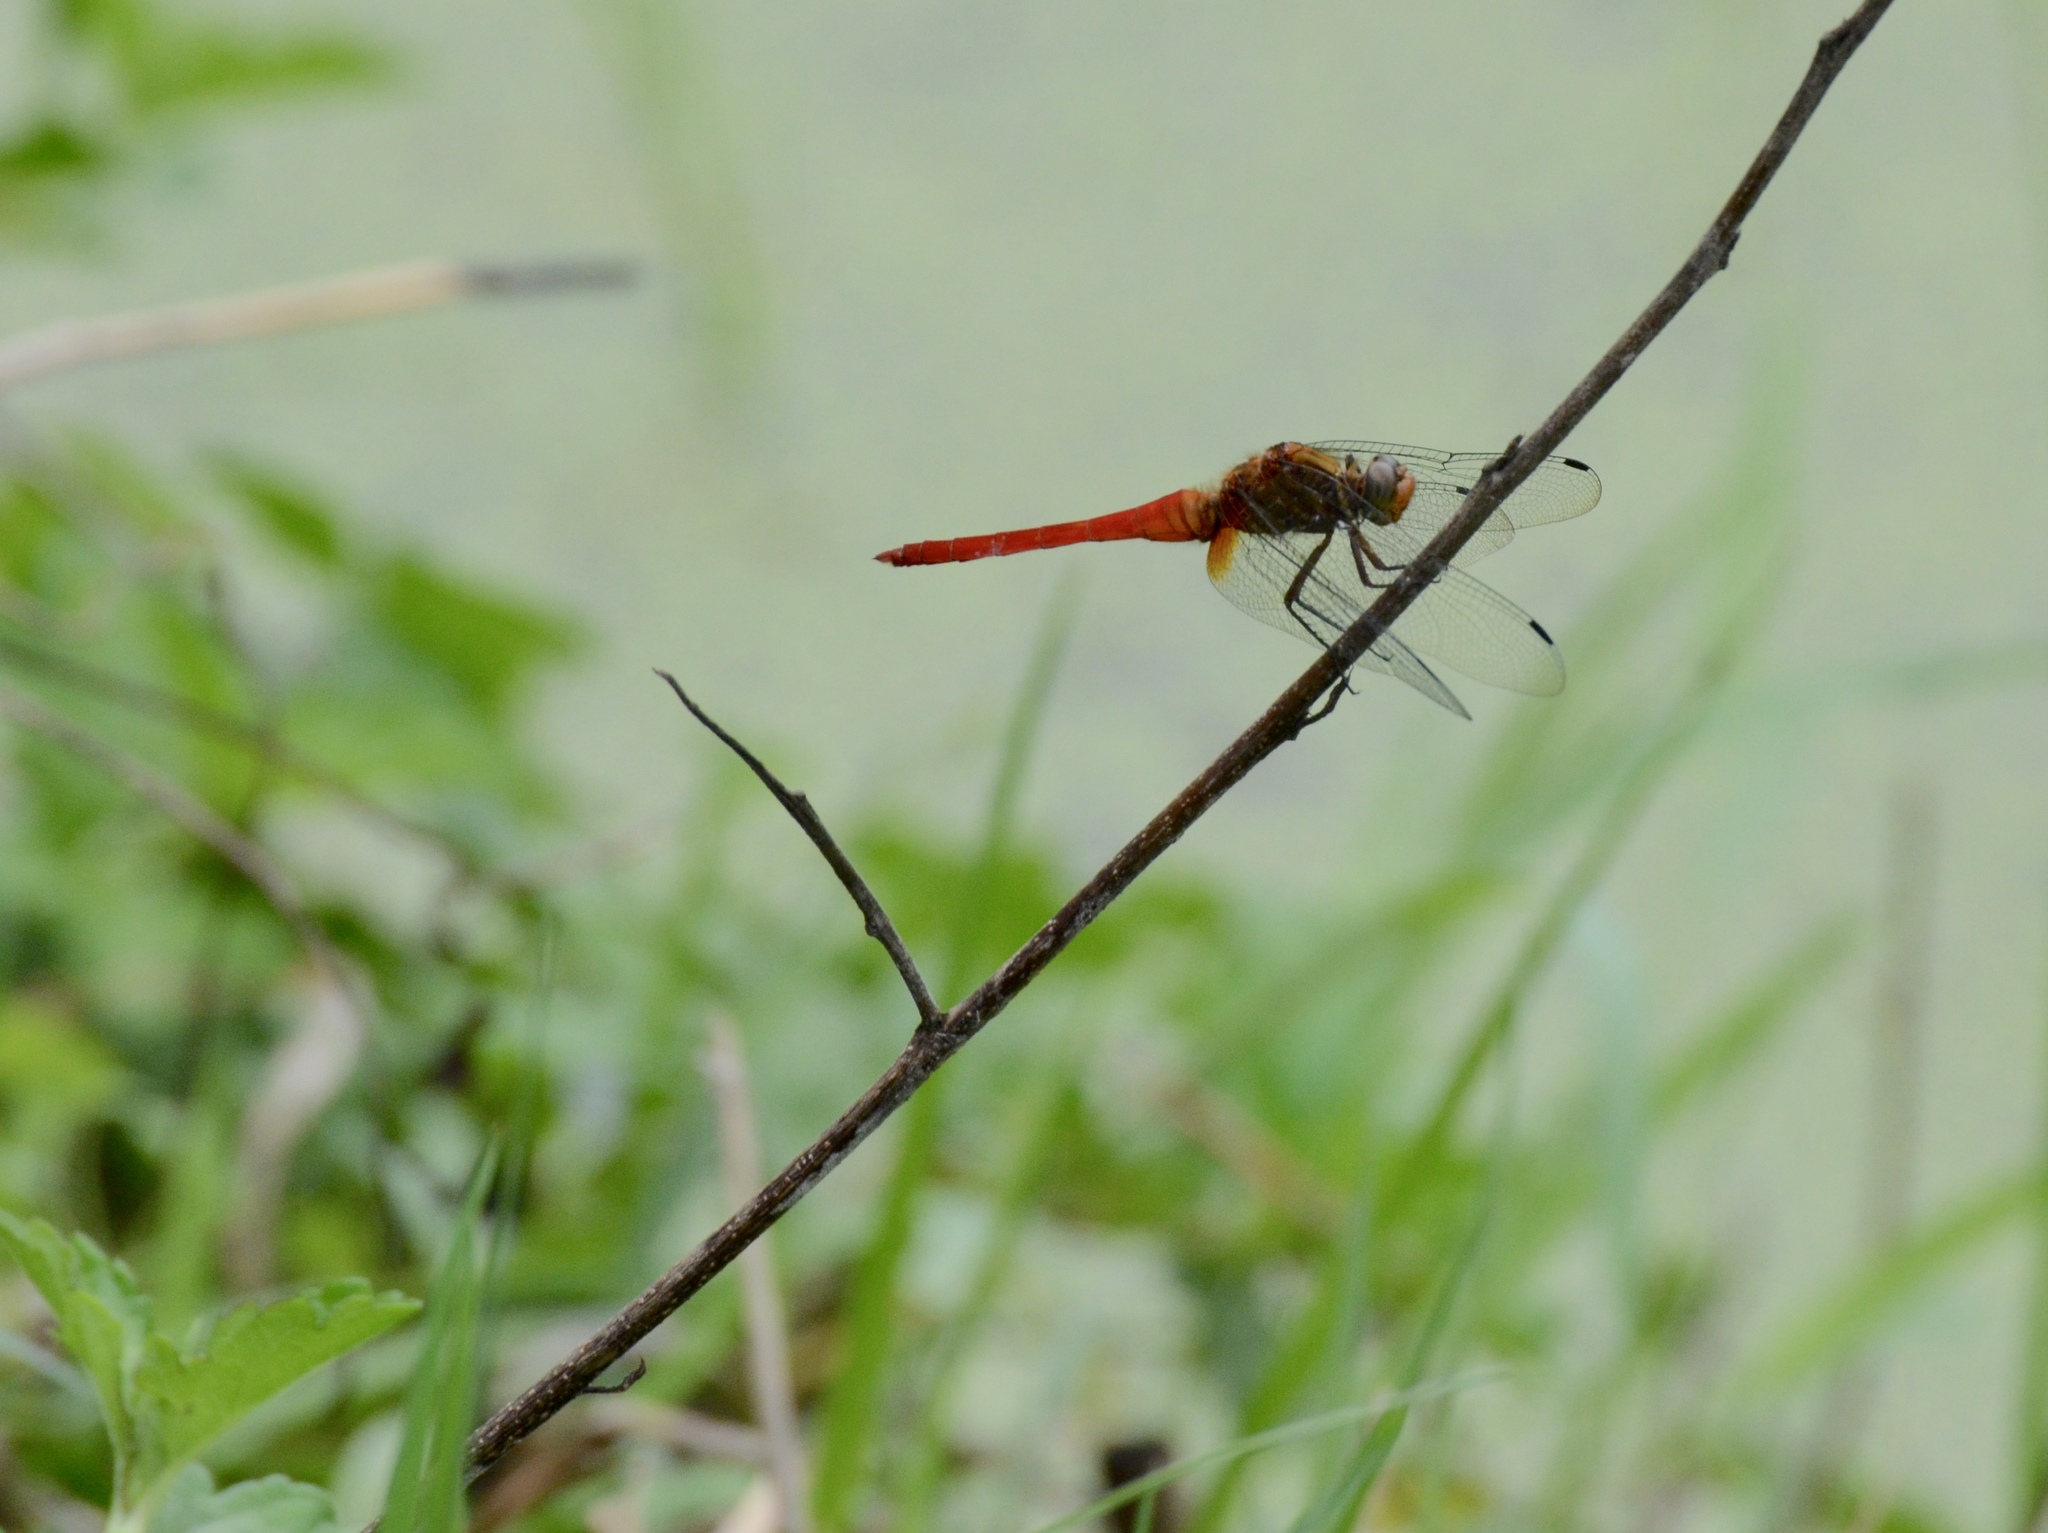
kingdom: Animalia
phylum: Arthropoda
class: Insecta
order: Odonata
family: Libellulidae
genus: Orthetrum
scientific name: Orthetrum testaceum
